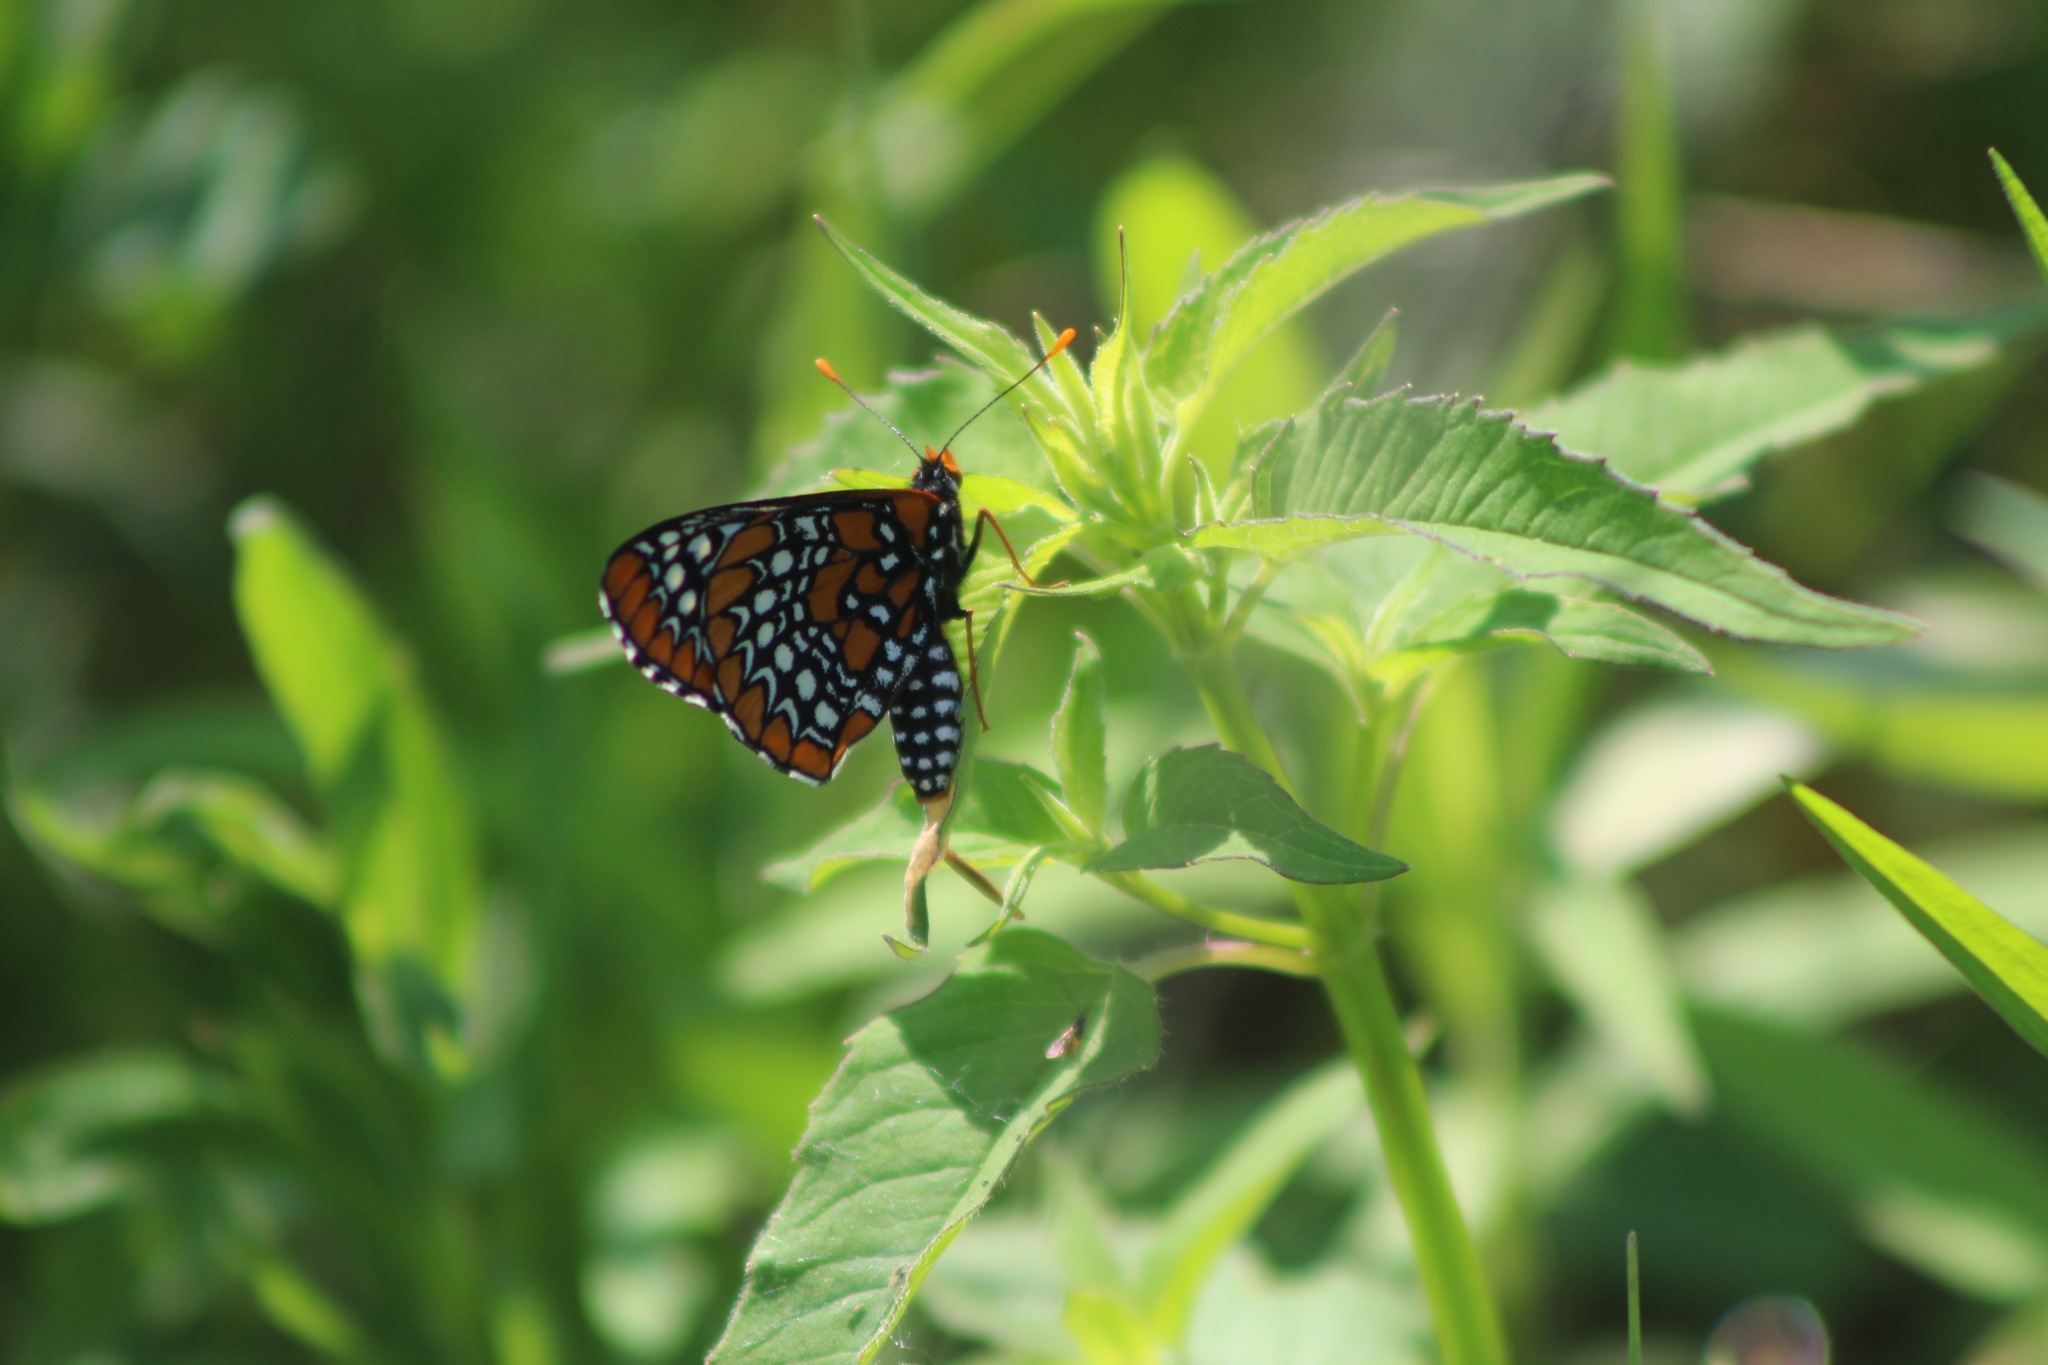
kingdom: Animalia
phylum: Arthropoda
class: Insecta
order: Lepidoptera
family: Nymphalidae
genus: Euphydryas
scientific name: Euphydryas phaeton
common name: Baltimore checkerspot
